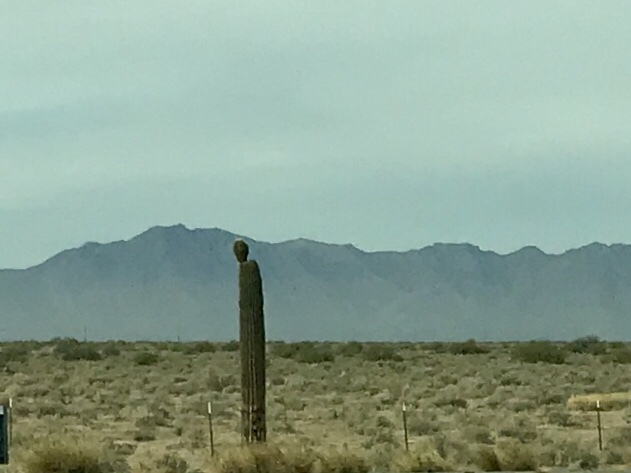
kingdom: Plantae
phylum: Tracheophyta
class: Magnoliopsida
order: Caryophyllales
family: Cactaceae
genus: Carnegiea
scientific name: Carnegiea gigantea
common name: Saguaro
